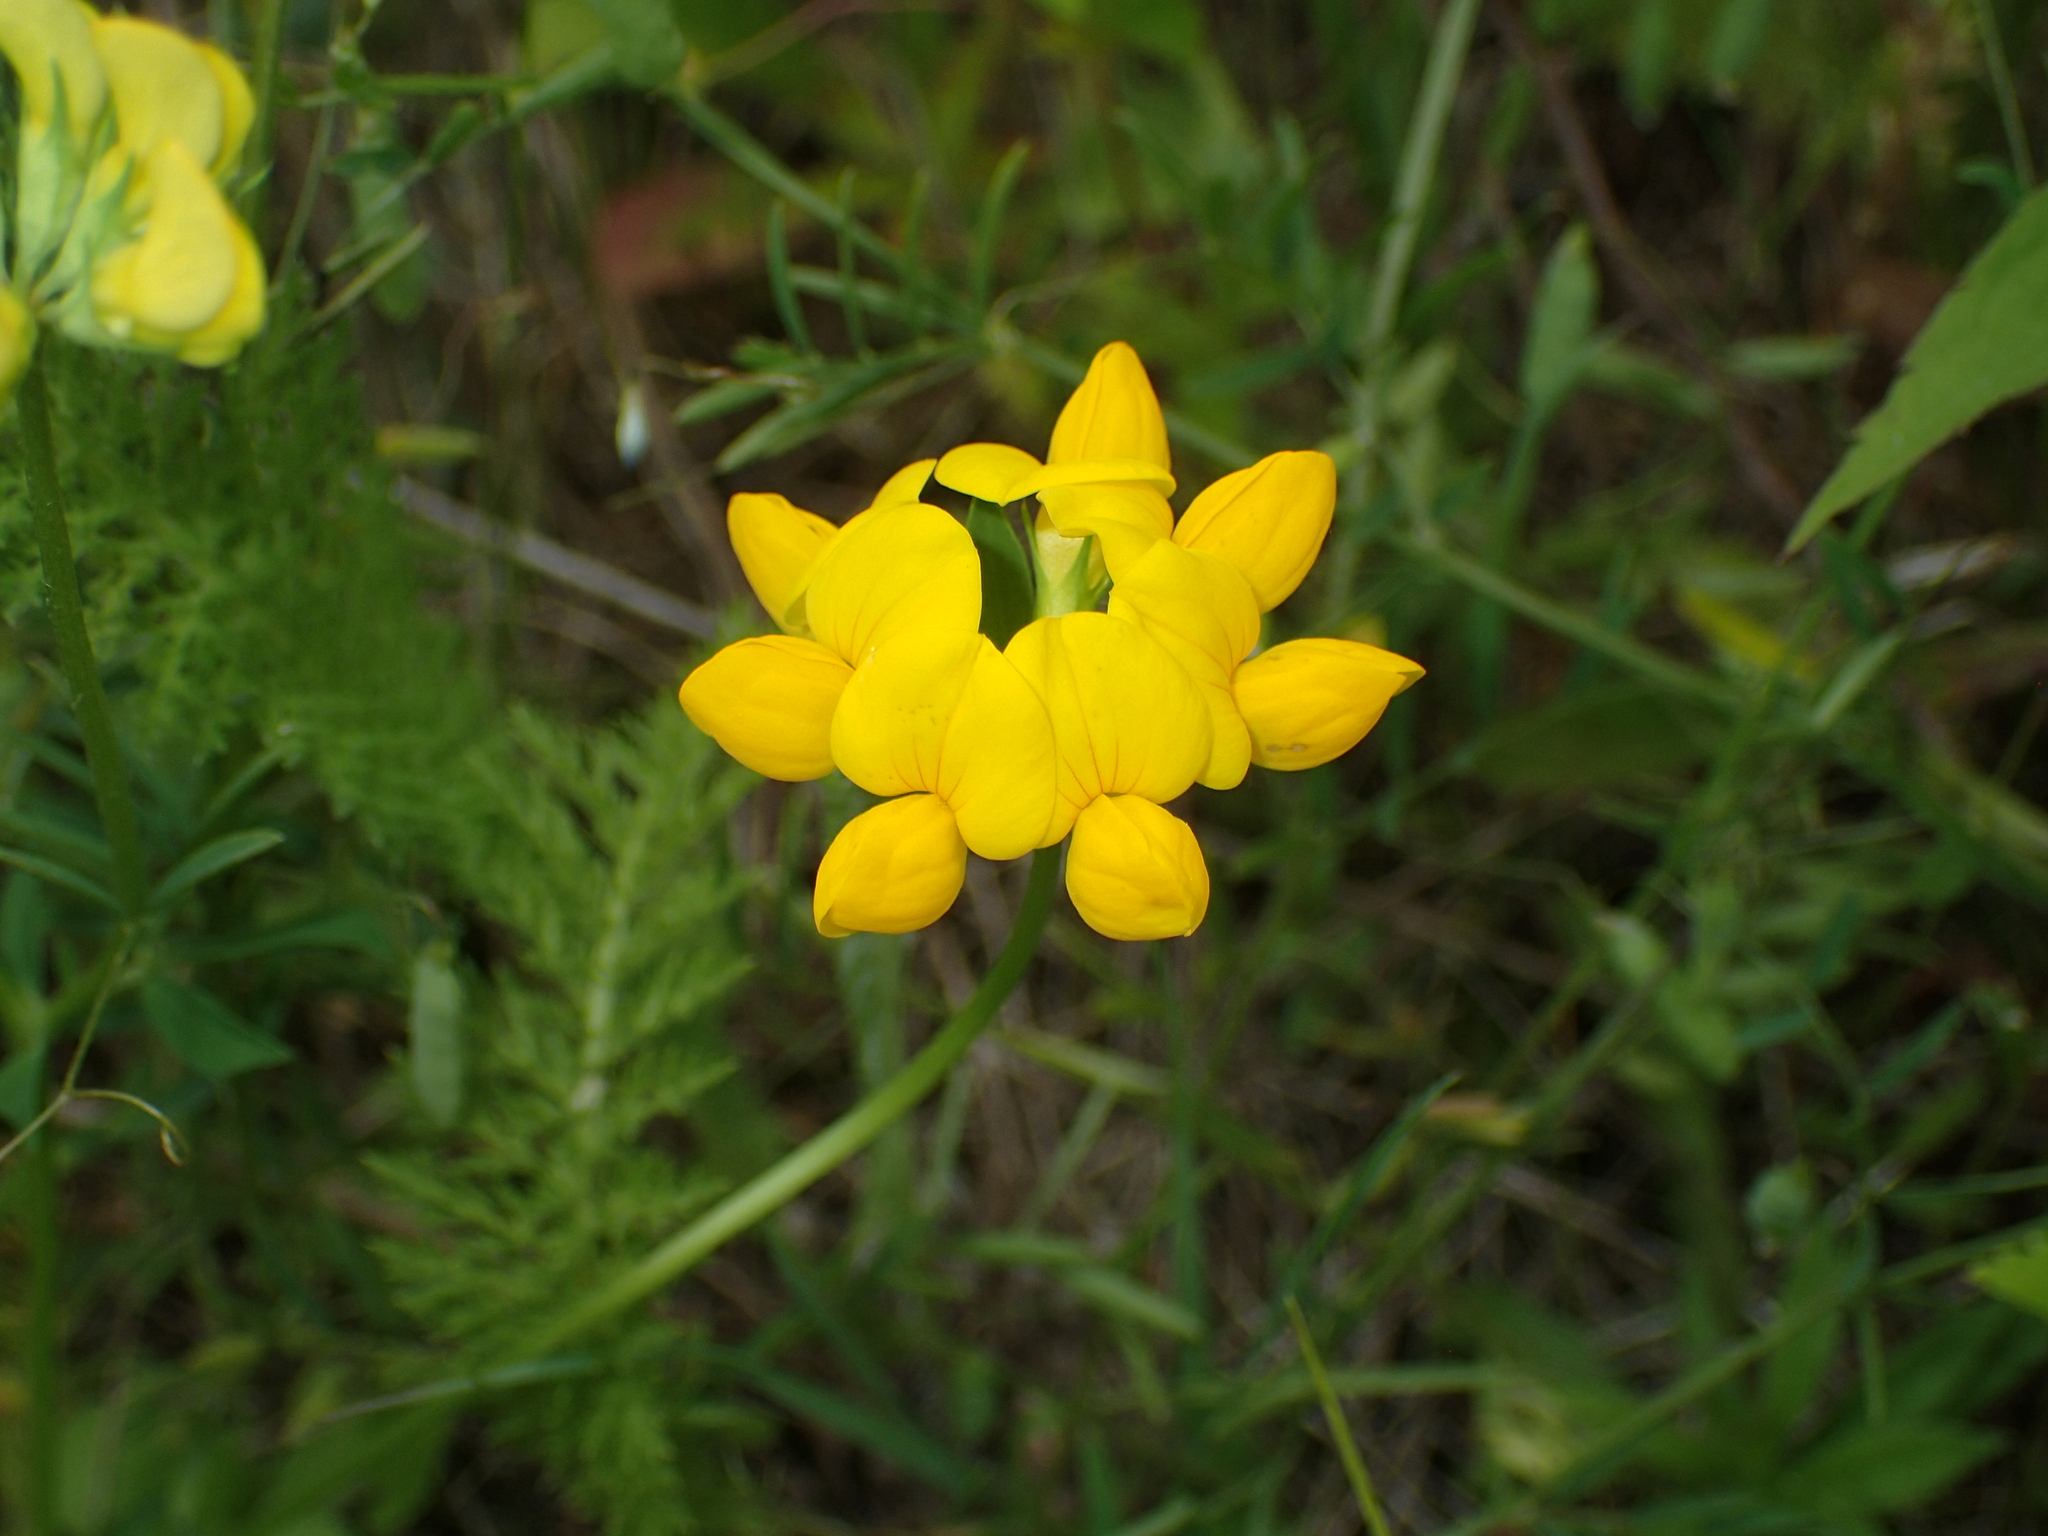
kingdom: Plantae
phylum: Tracheophyta
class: Magnoliopsida
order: Fabales
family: Fabaceae
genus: Lotus
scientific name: Lotus corniculatus
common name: Common bird's-foot-trefoil
